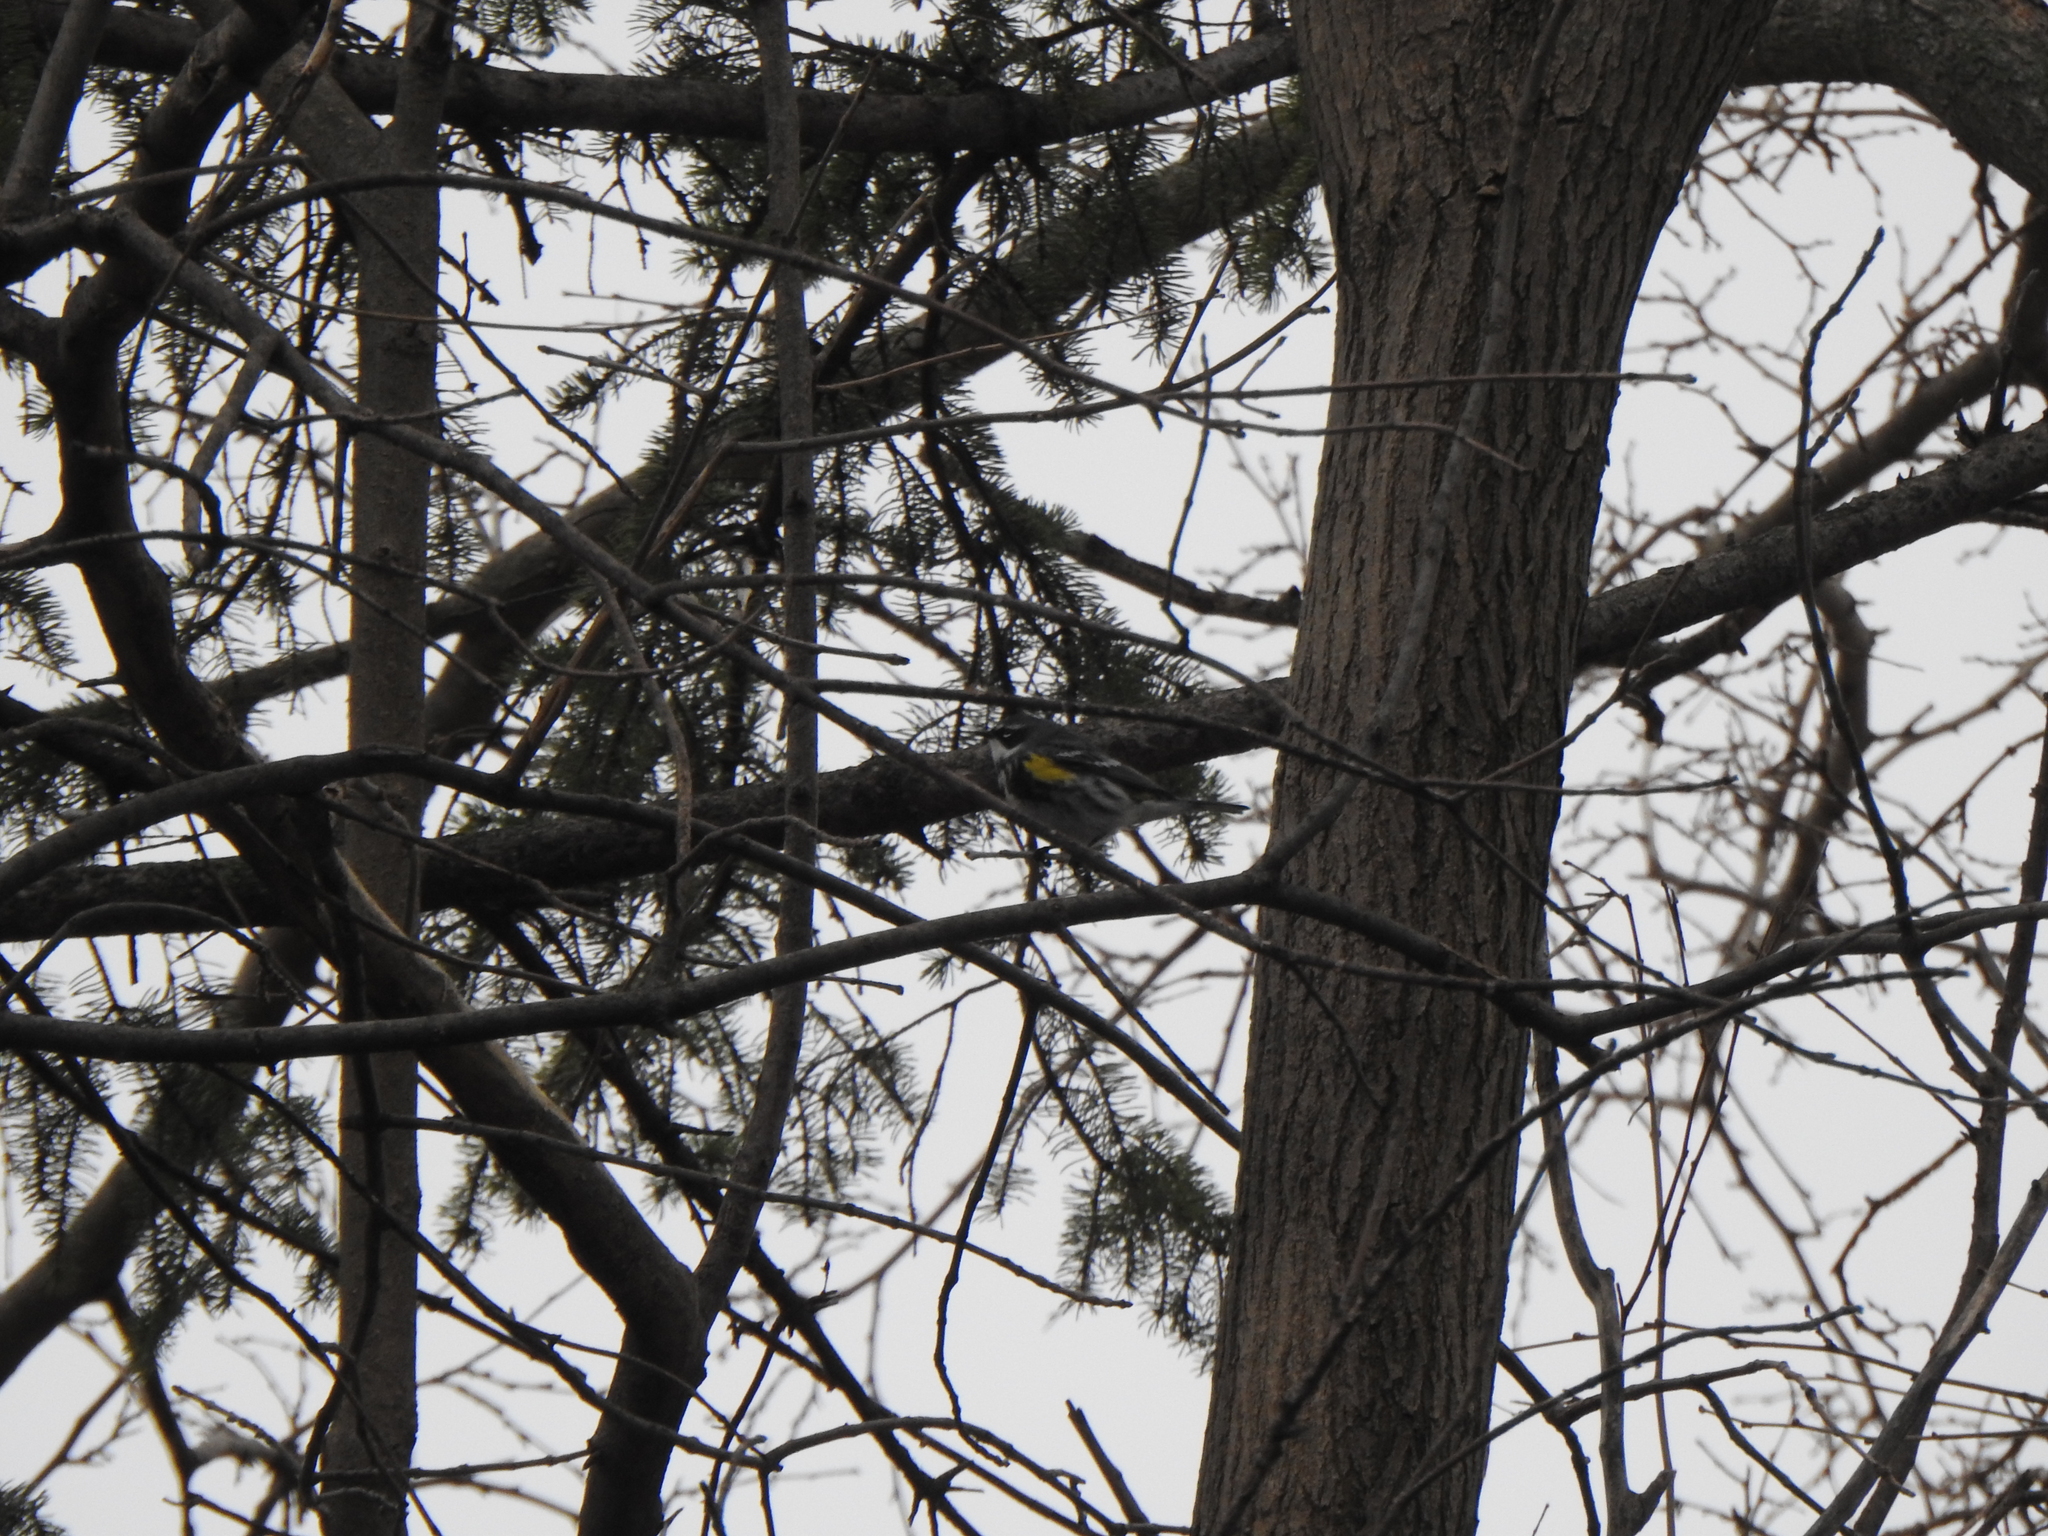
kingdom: Animalia
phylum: Chordata
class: Aves
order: Passeriformes
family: Parulidae
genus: Setophaga
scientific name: Setophaga coronata
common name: Myrtle warbler
